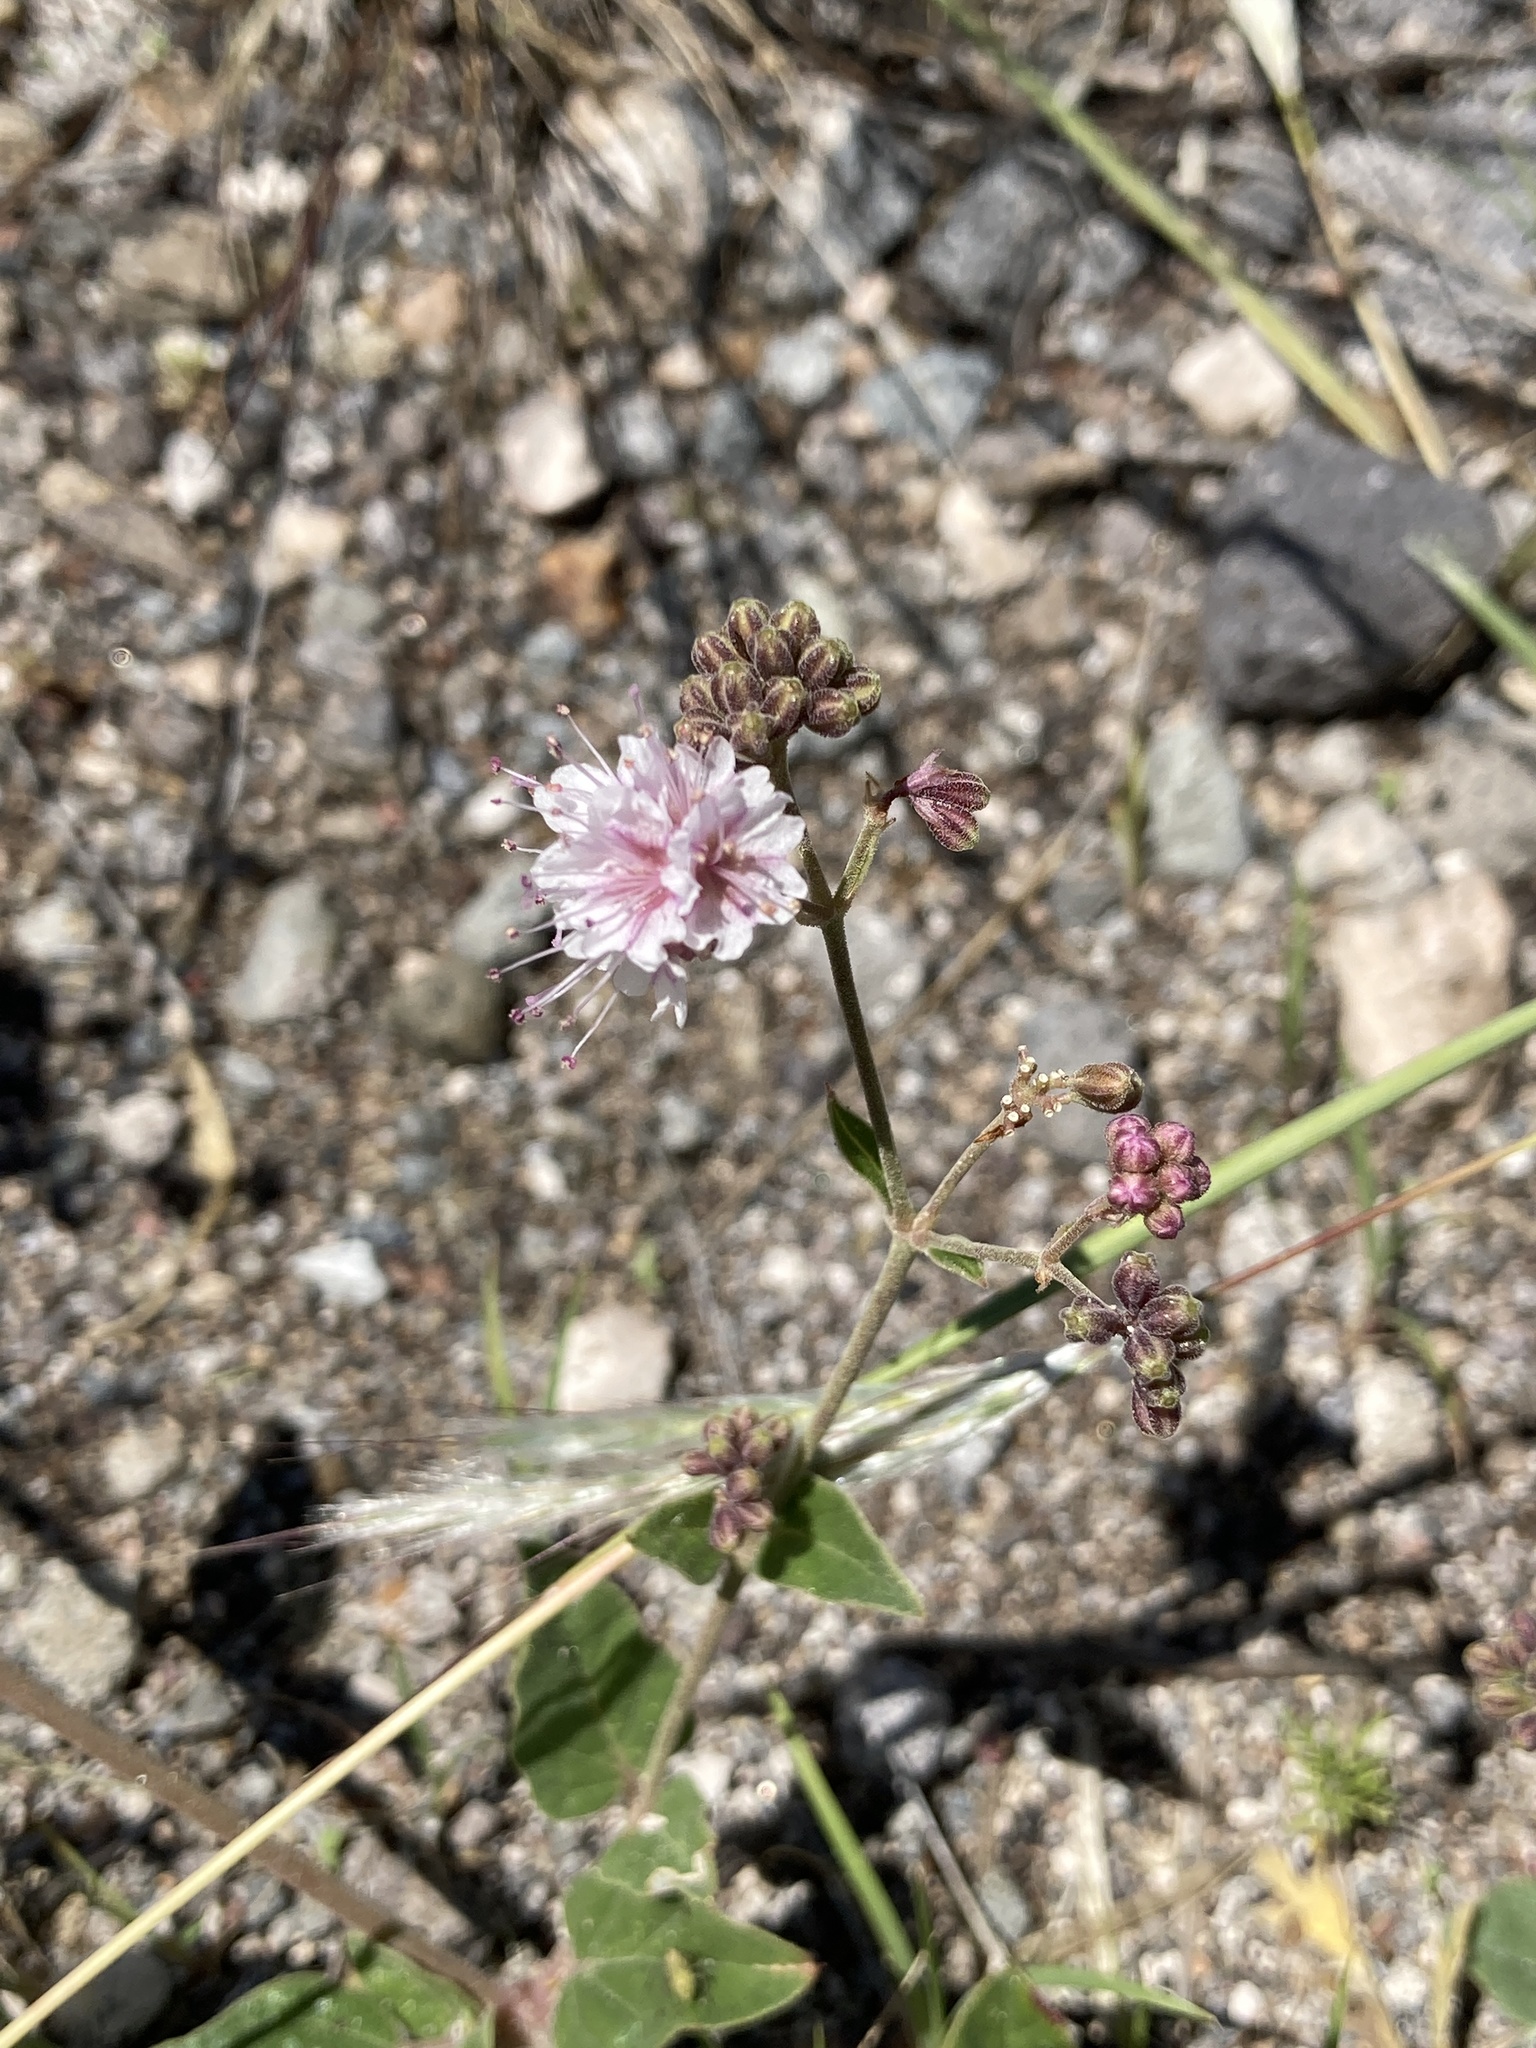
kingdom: Plantae
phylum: Tracheophyta
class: Magnoliopsida
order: Caryophyllales
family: Nyctaginaceae
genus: Boerhavia
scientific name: Boerhavia diffusa
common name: Red spiderling
